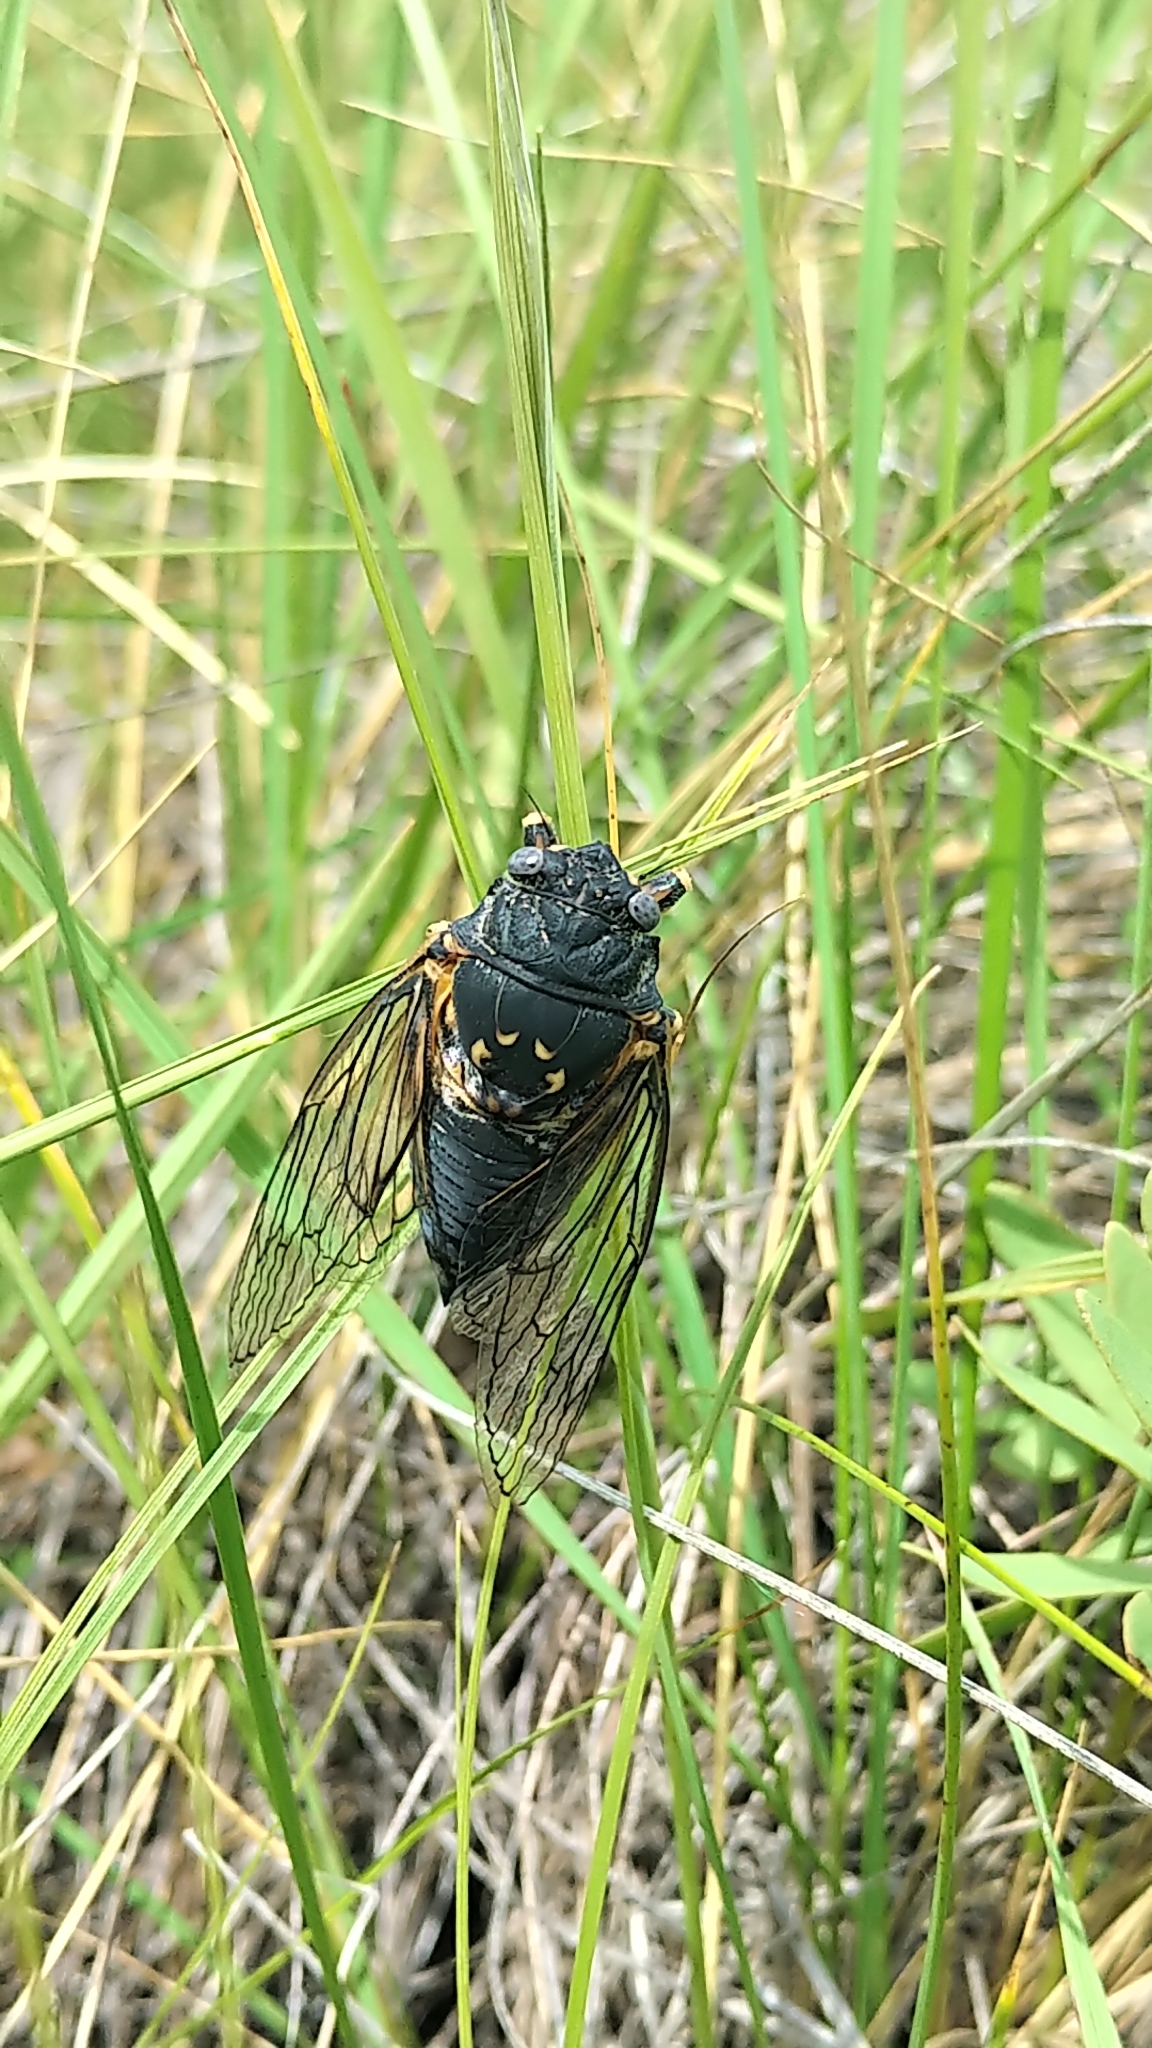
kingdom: Animalia
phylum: Arthropoda
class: Insecta
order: Hemiptera
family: Cicadidae
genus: Okanagana
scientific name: Okanagana canadensis
